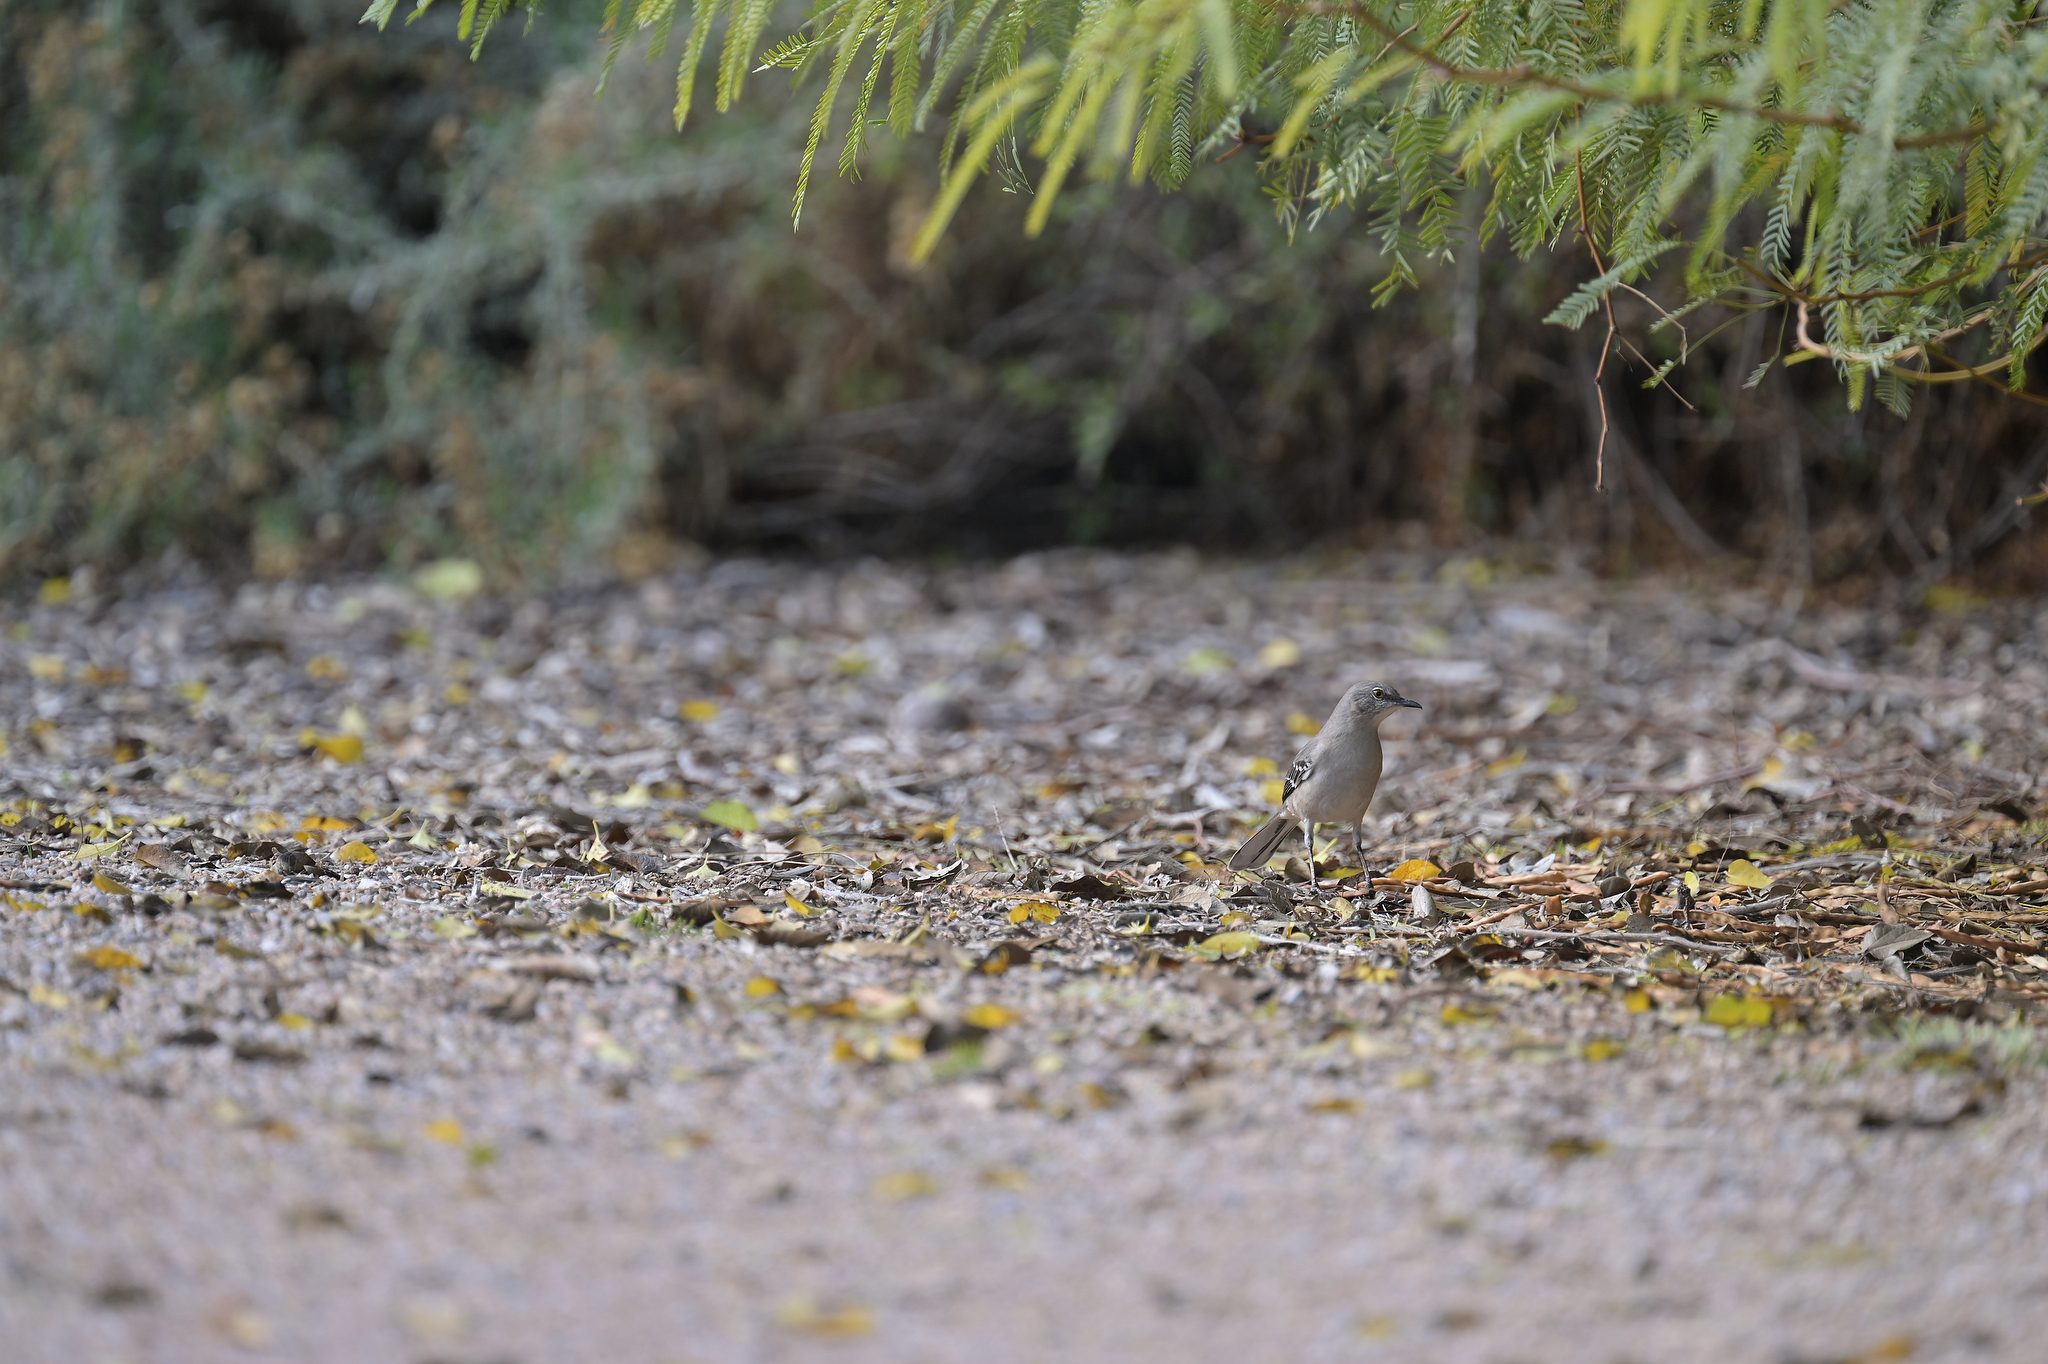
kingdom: Animalia
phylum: Chordata
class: Aves
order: Passeriformes
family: Mimidae
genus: Mimus
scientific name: Mimus polyglottos
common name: Northern mockingbird
